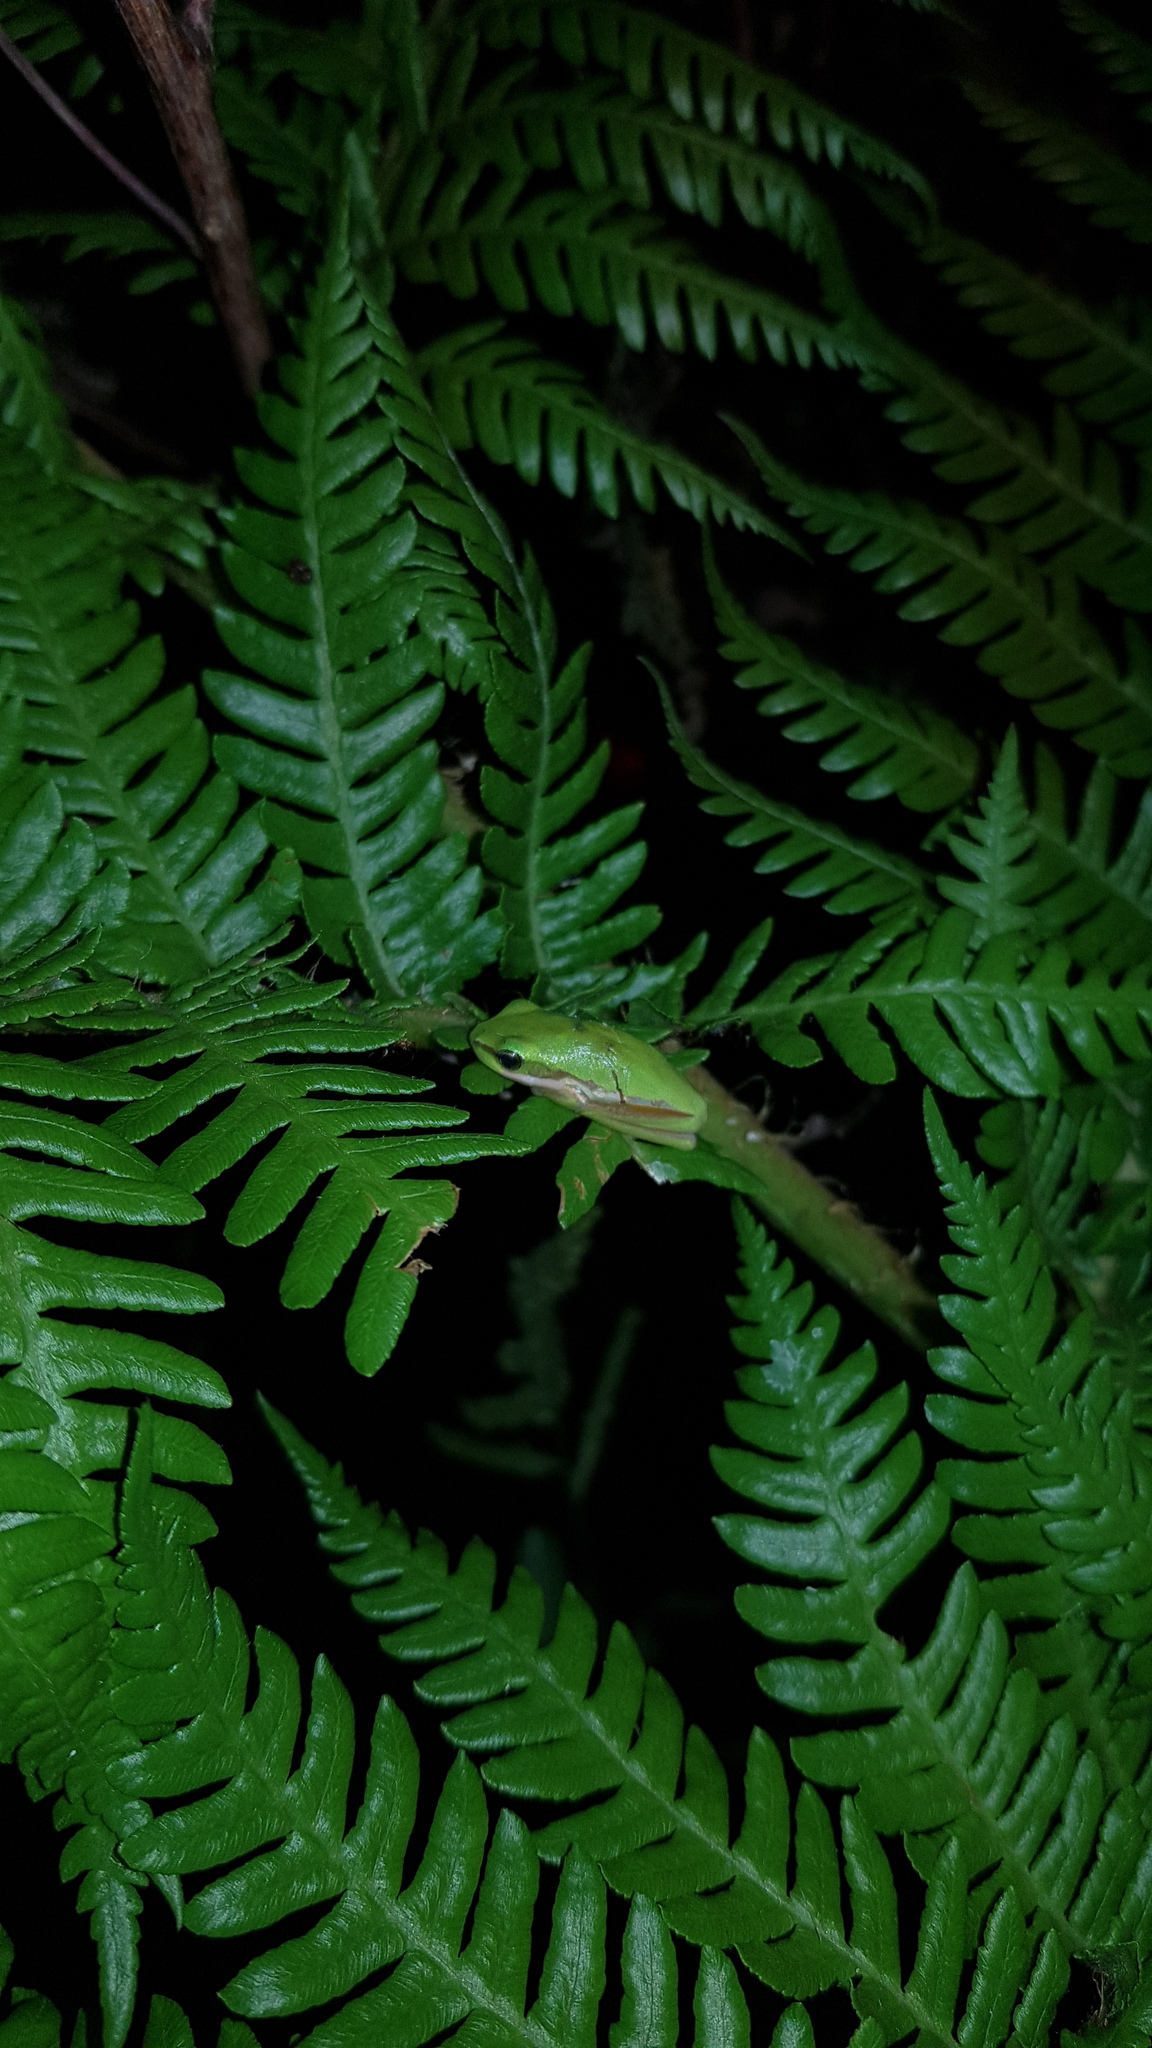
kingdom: Animalia
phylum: Chordata
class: Amphibia
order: Anura
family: Pelodryadidae
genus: Litoria
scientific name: Litoria fallax
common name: Eastern dwarf treefrog
